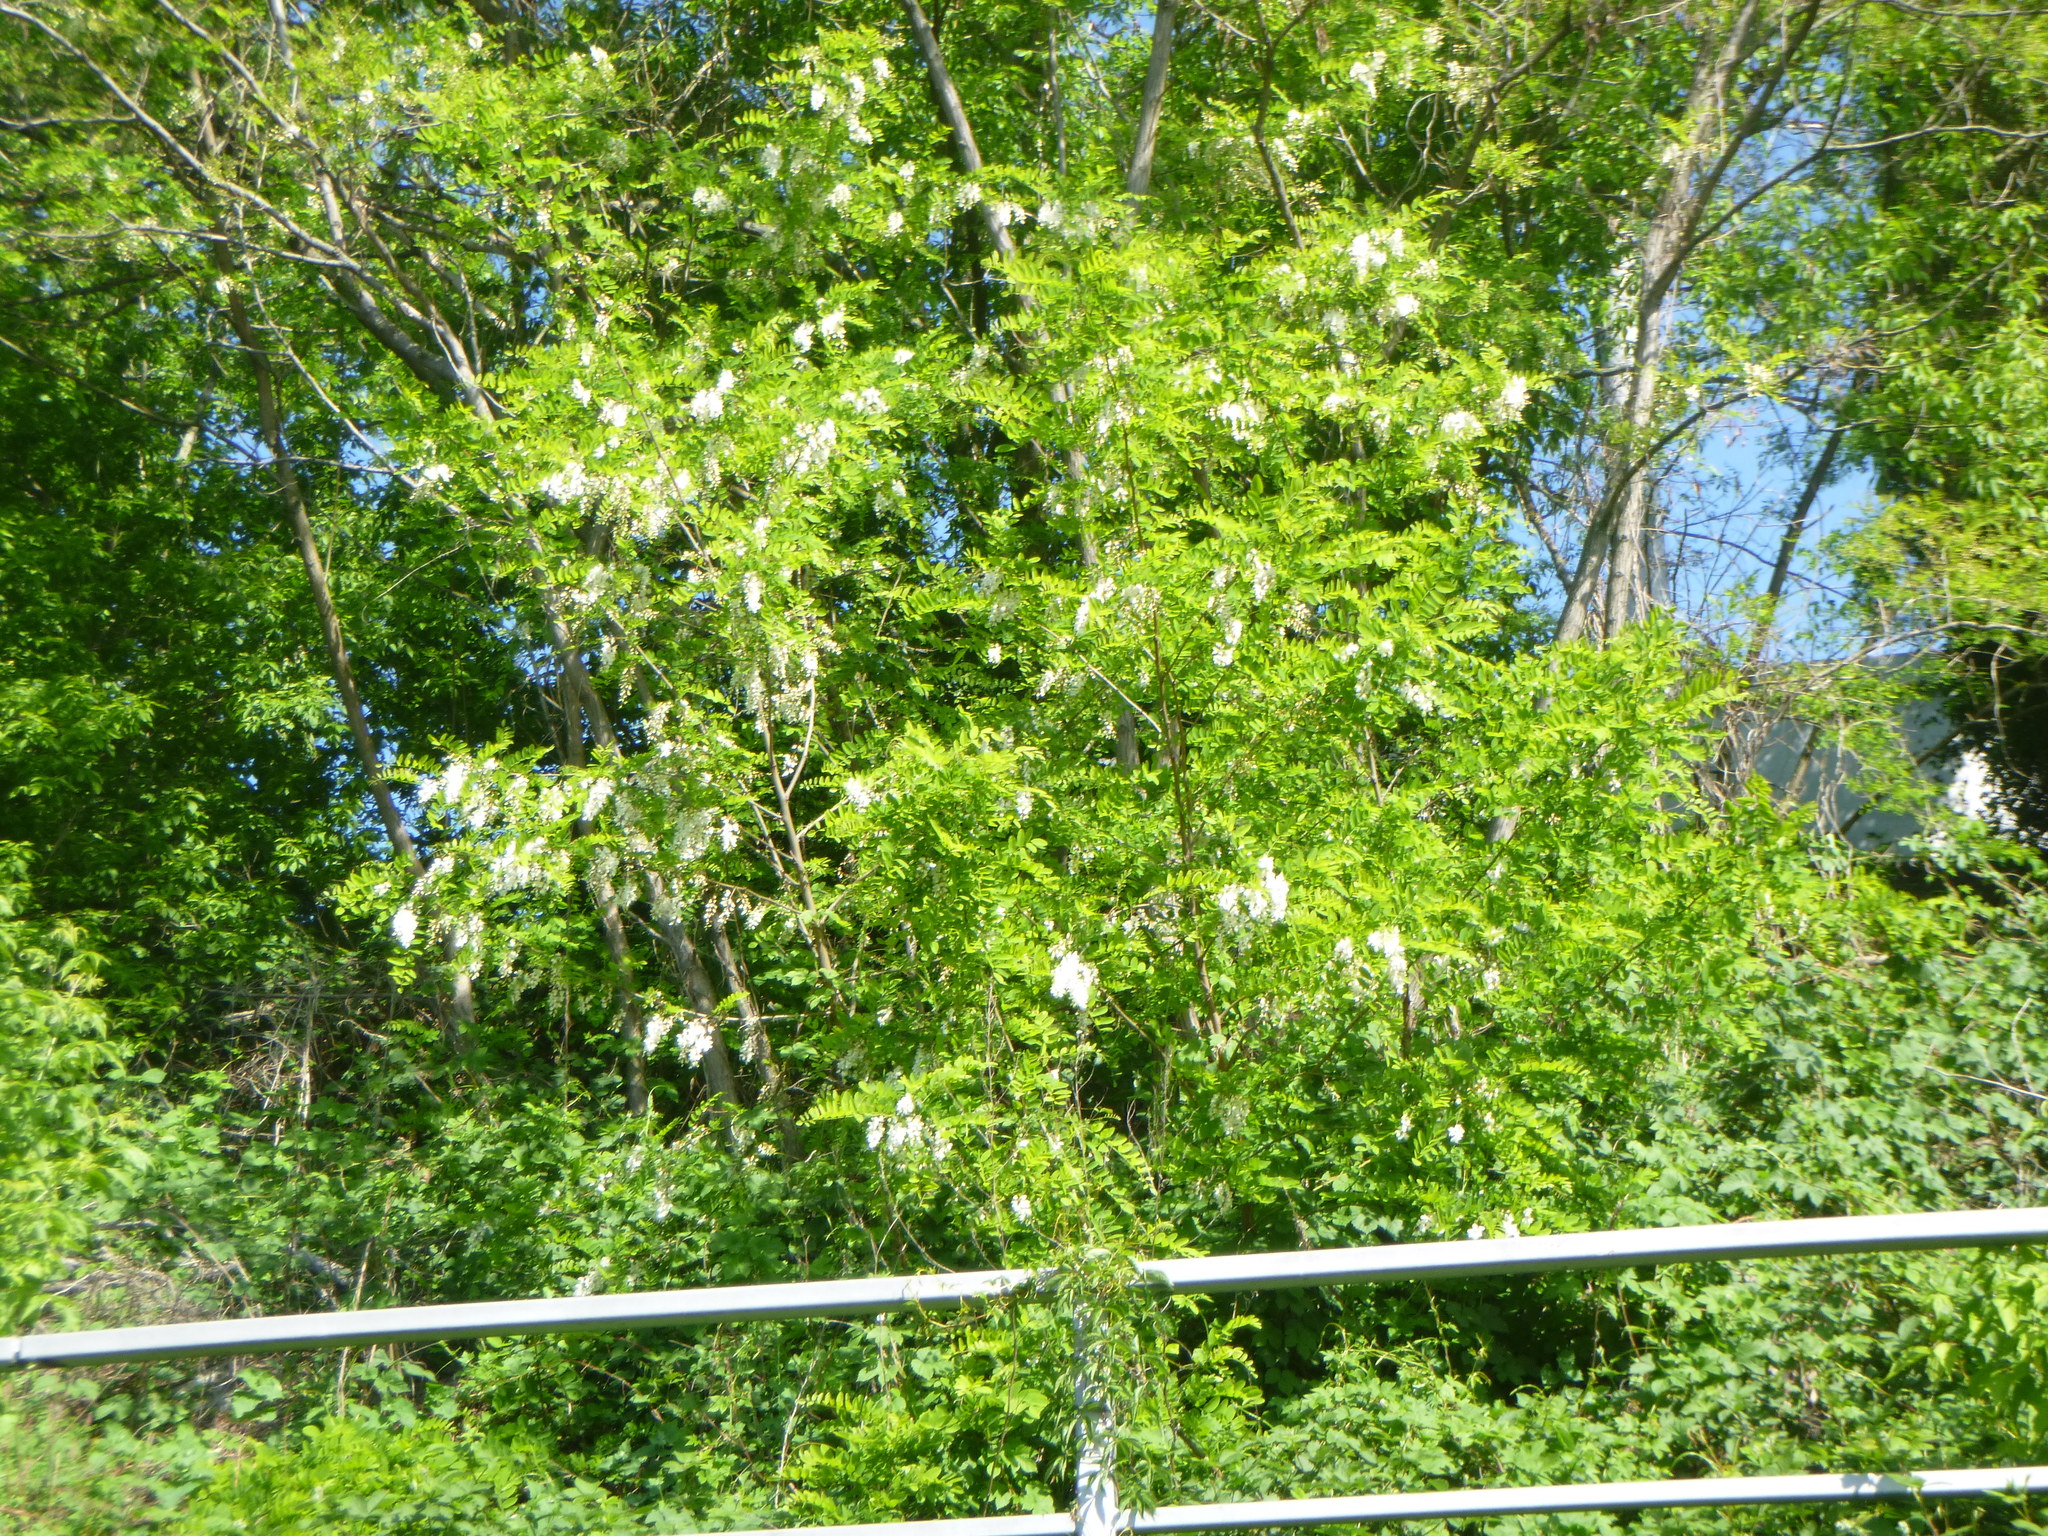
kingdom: Plantae
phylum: Tracheophyta
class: Magnoliopsida
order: Fabales
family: Fabaceae
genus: Robinia
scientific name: Robinia pseudoacacia
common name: Black locust
